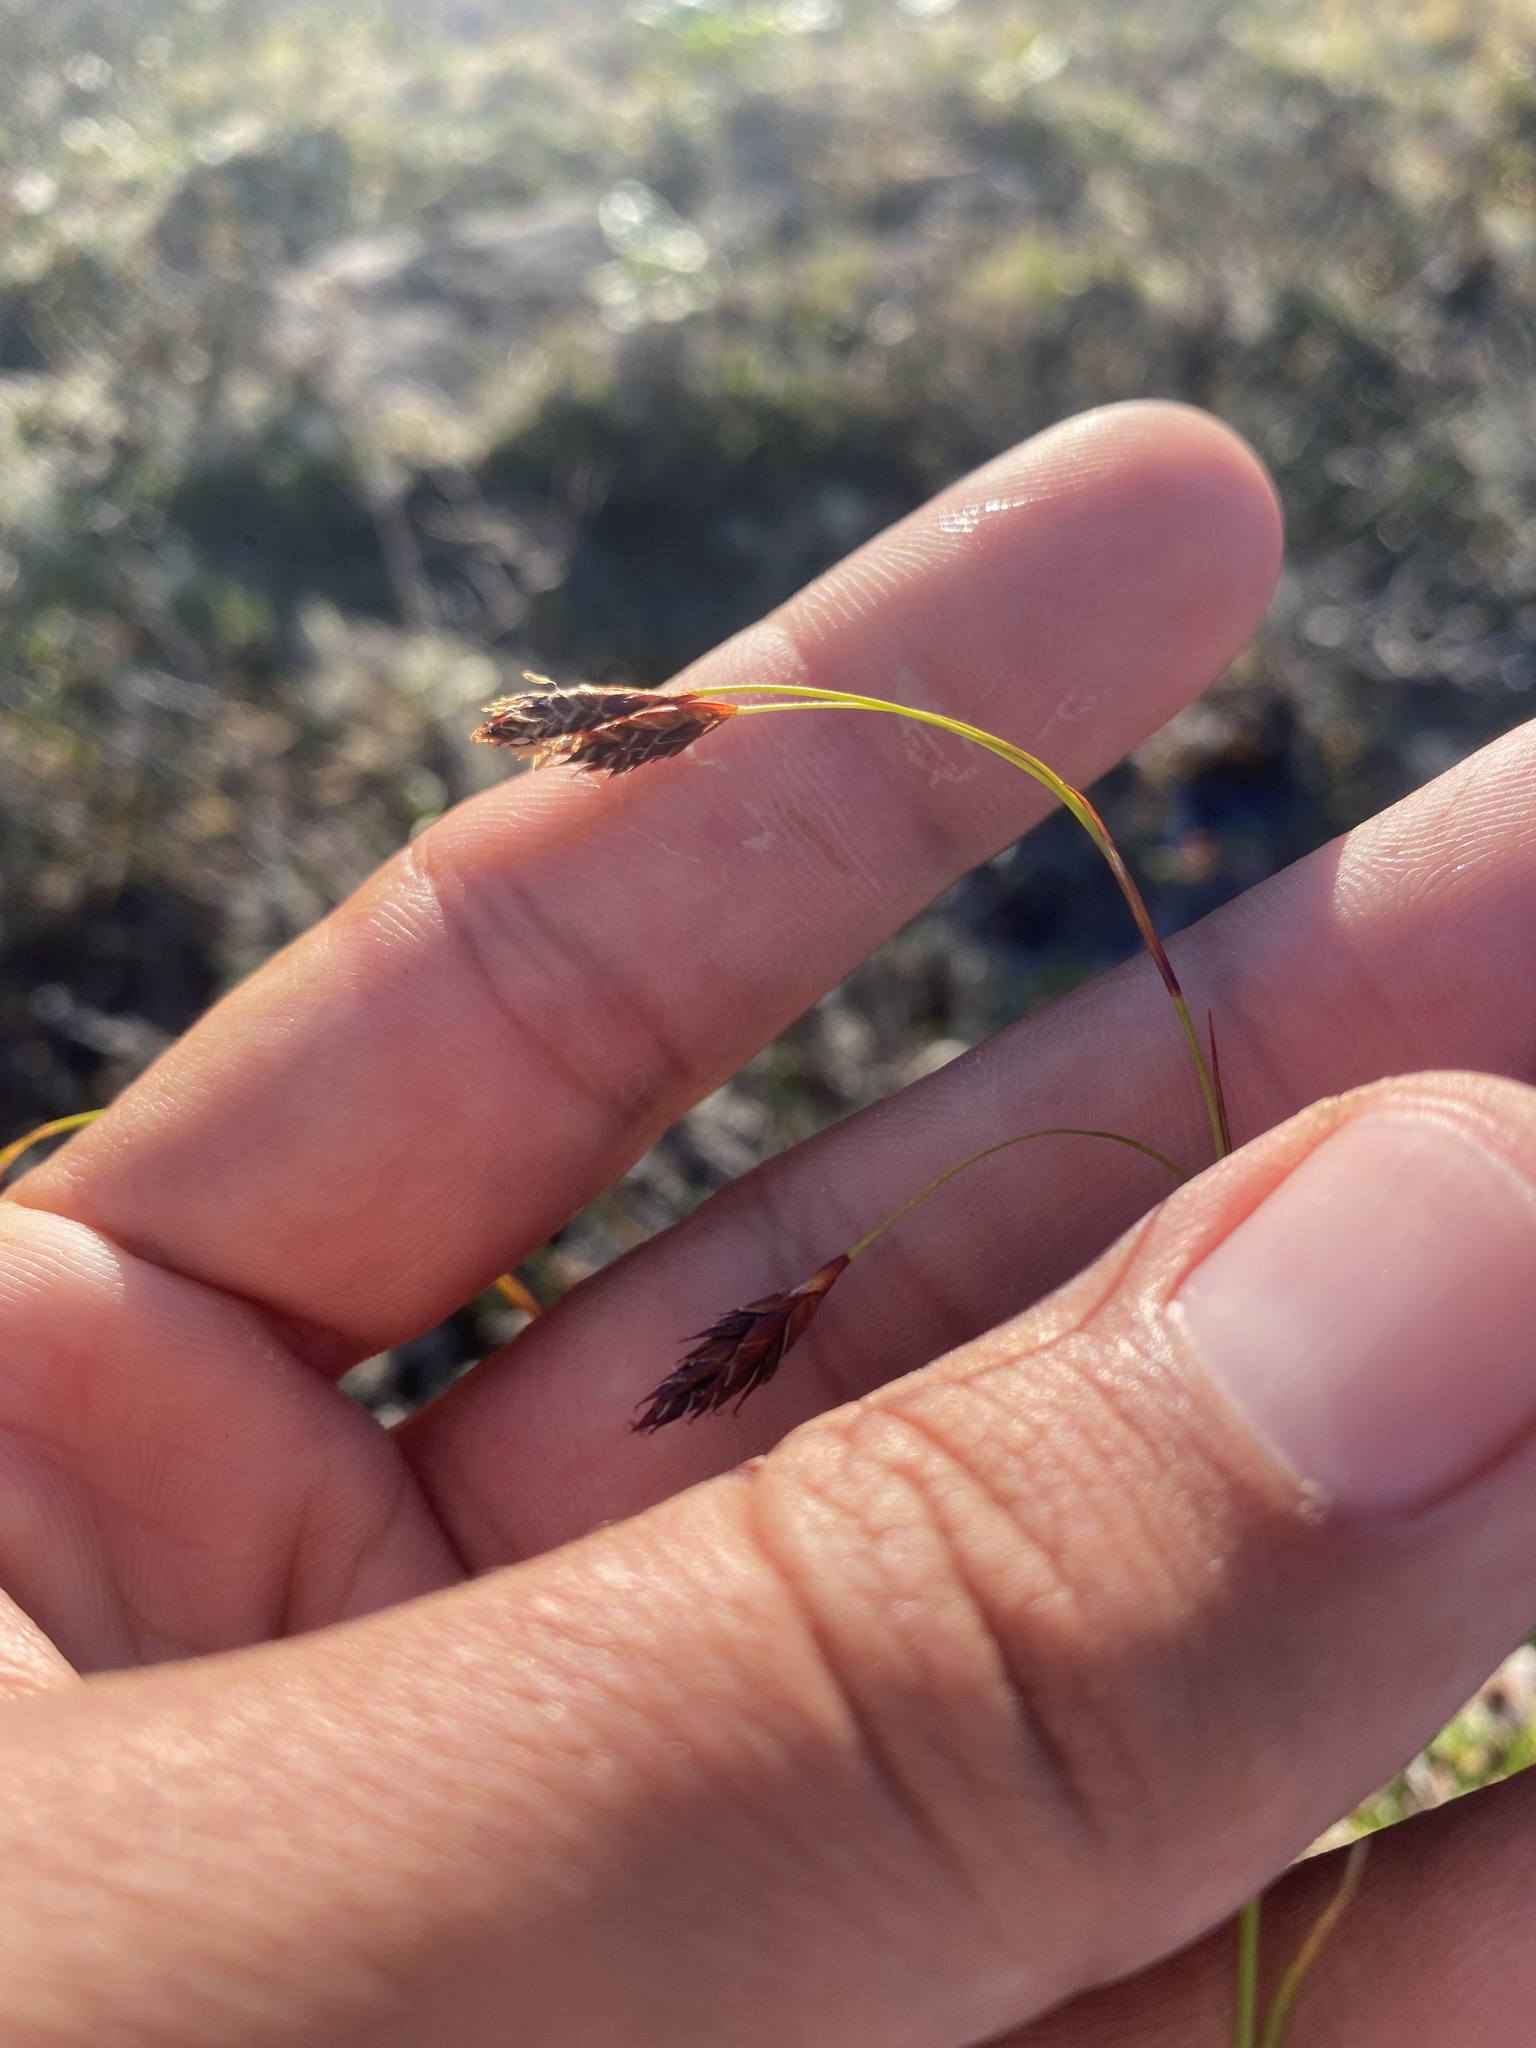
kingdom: Plantae
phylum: Tracheophyta
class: Liliopsida
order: Poales
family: Cyperaceae
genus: Carex
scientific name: Carex fuliginosa
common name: Few-flowered sedge
